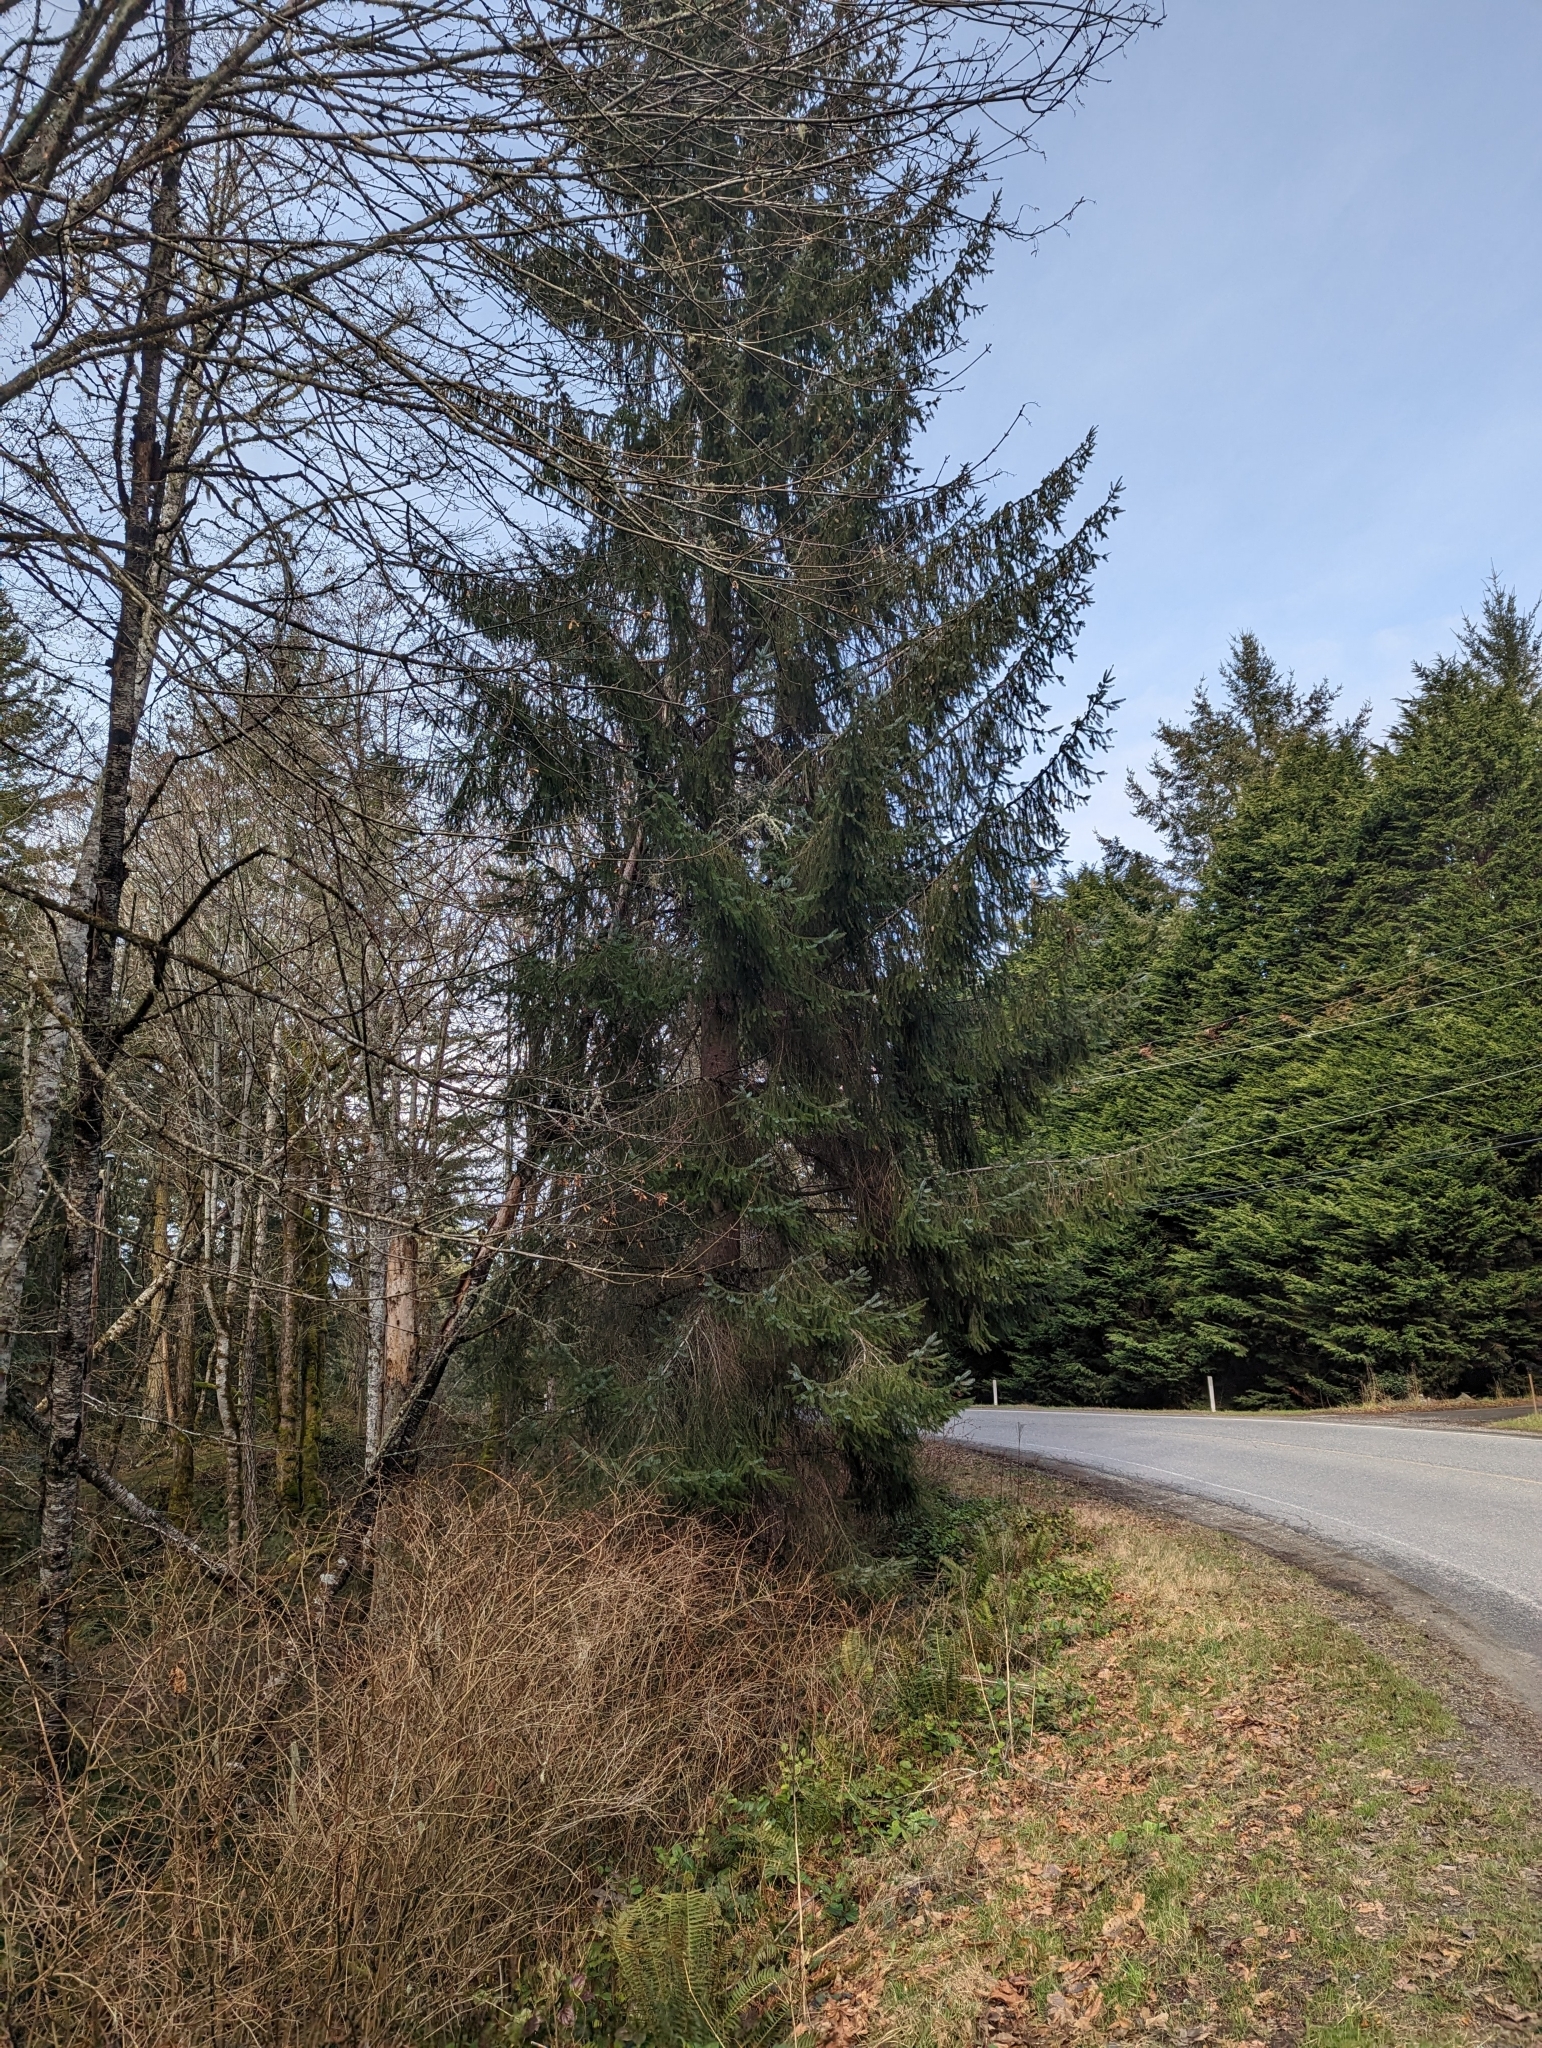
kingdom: Plantae
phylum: Tracheophyta
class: Pinopsida
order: Pinales
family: Pinaceae
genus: Picea
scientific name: Picea sitchensis
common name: Sitka spruce
